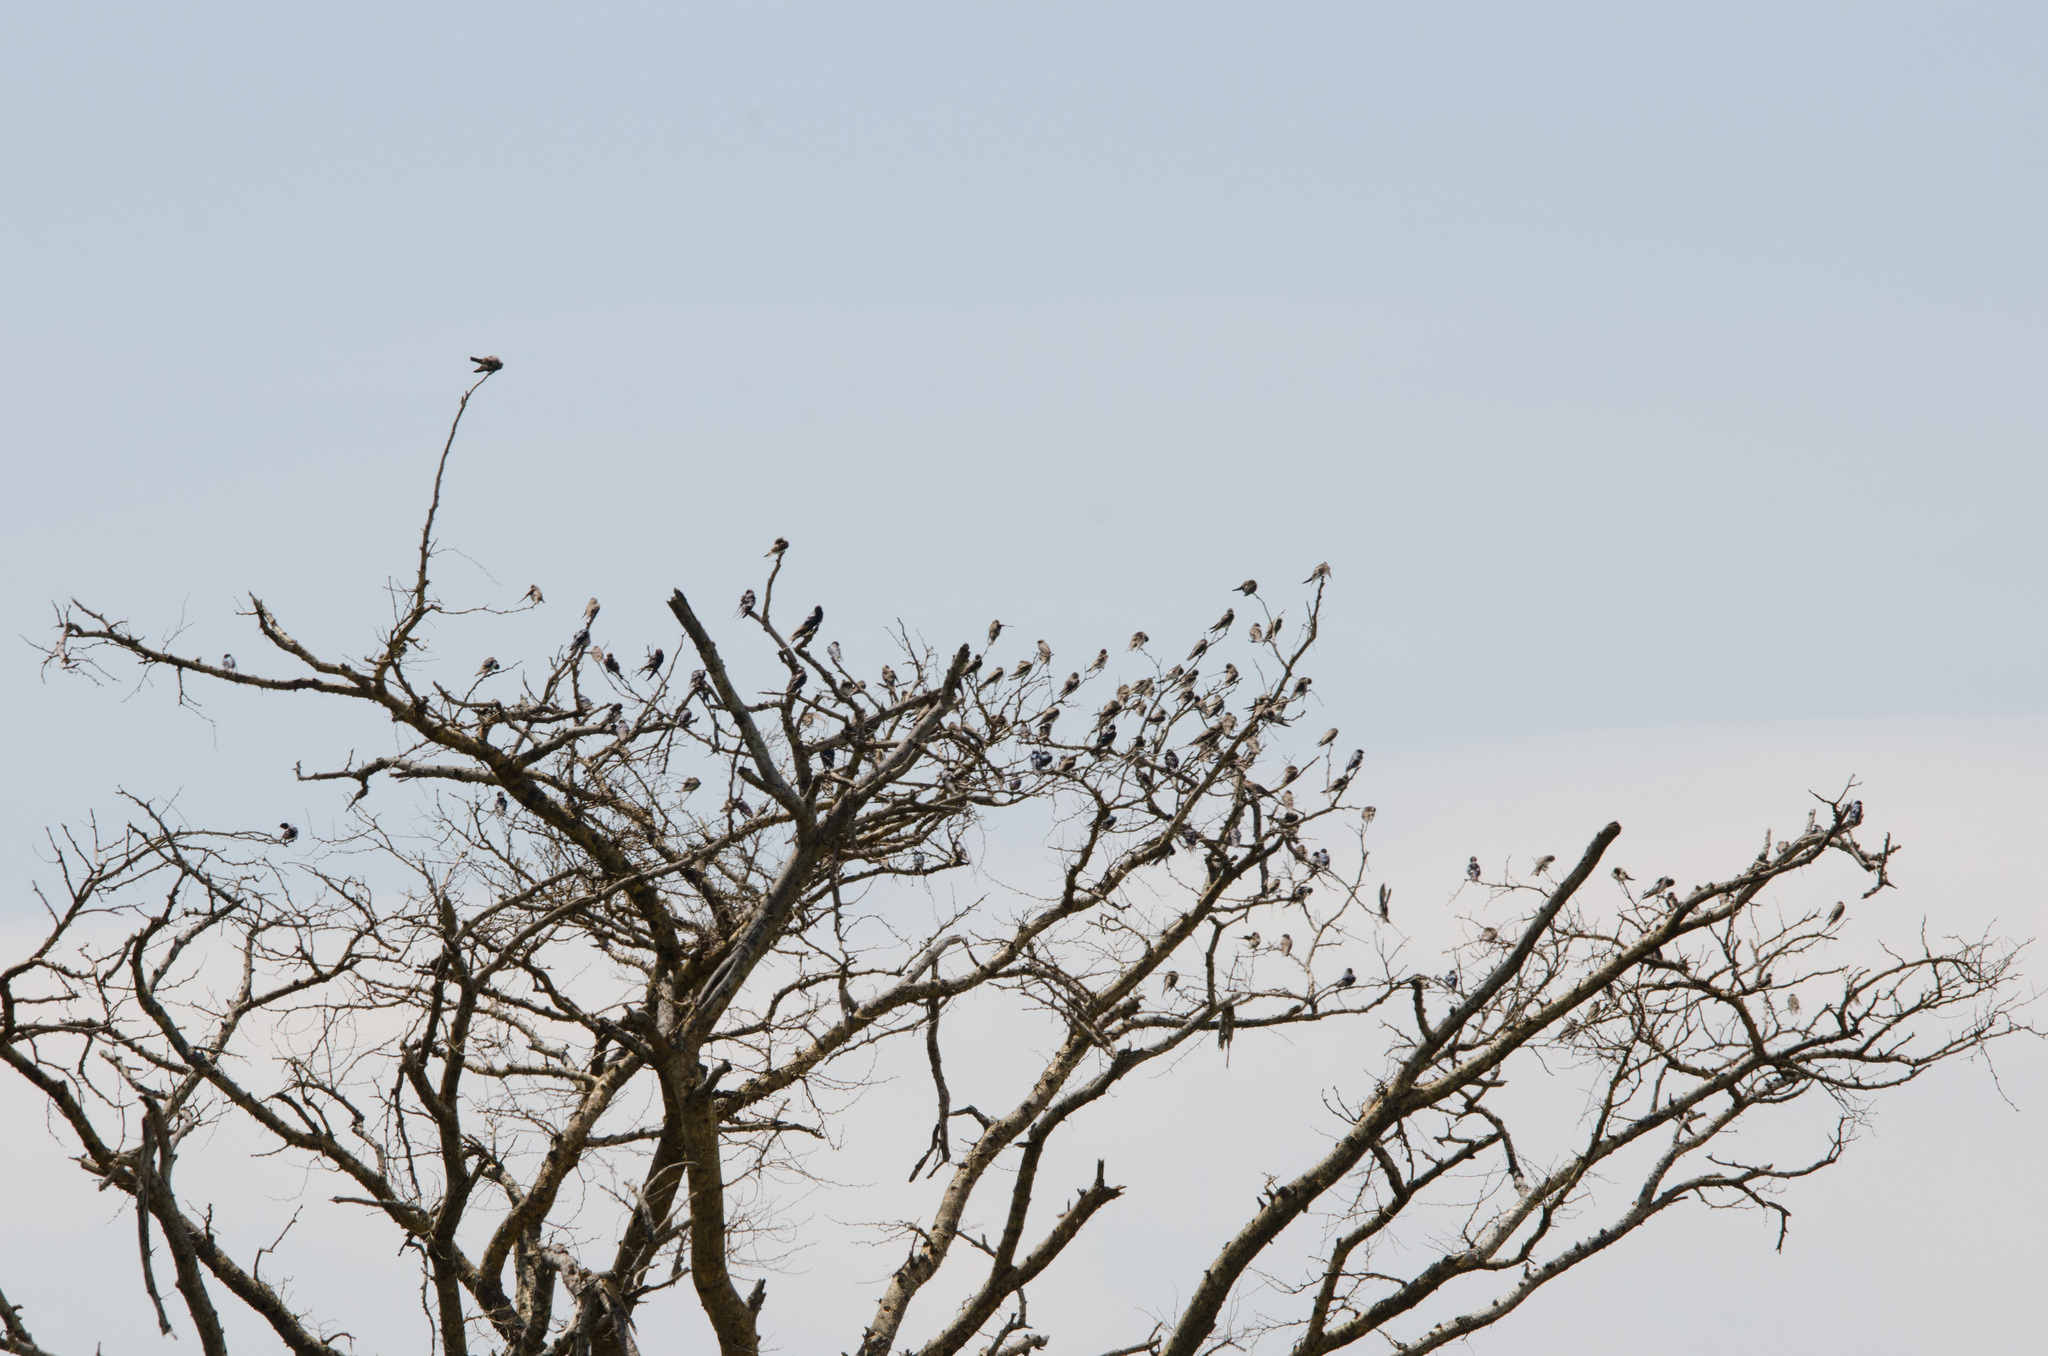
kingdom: Animalia
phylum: Chordata
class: Aves
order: Passeriformes
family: Hirundinidae
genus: Riparia
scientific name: Riparia cincta
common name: Banded martin
